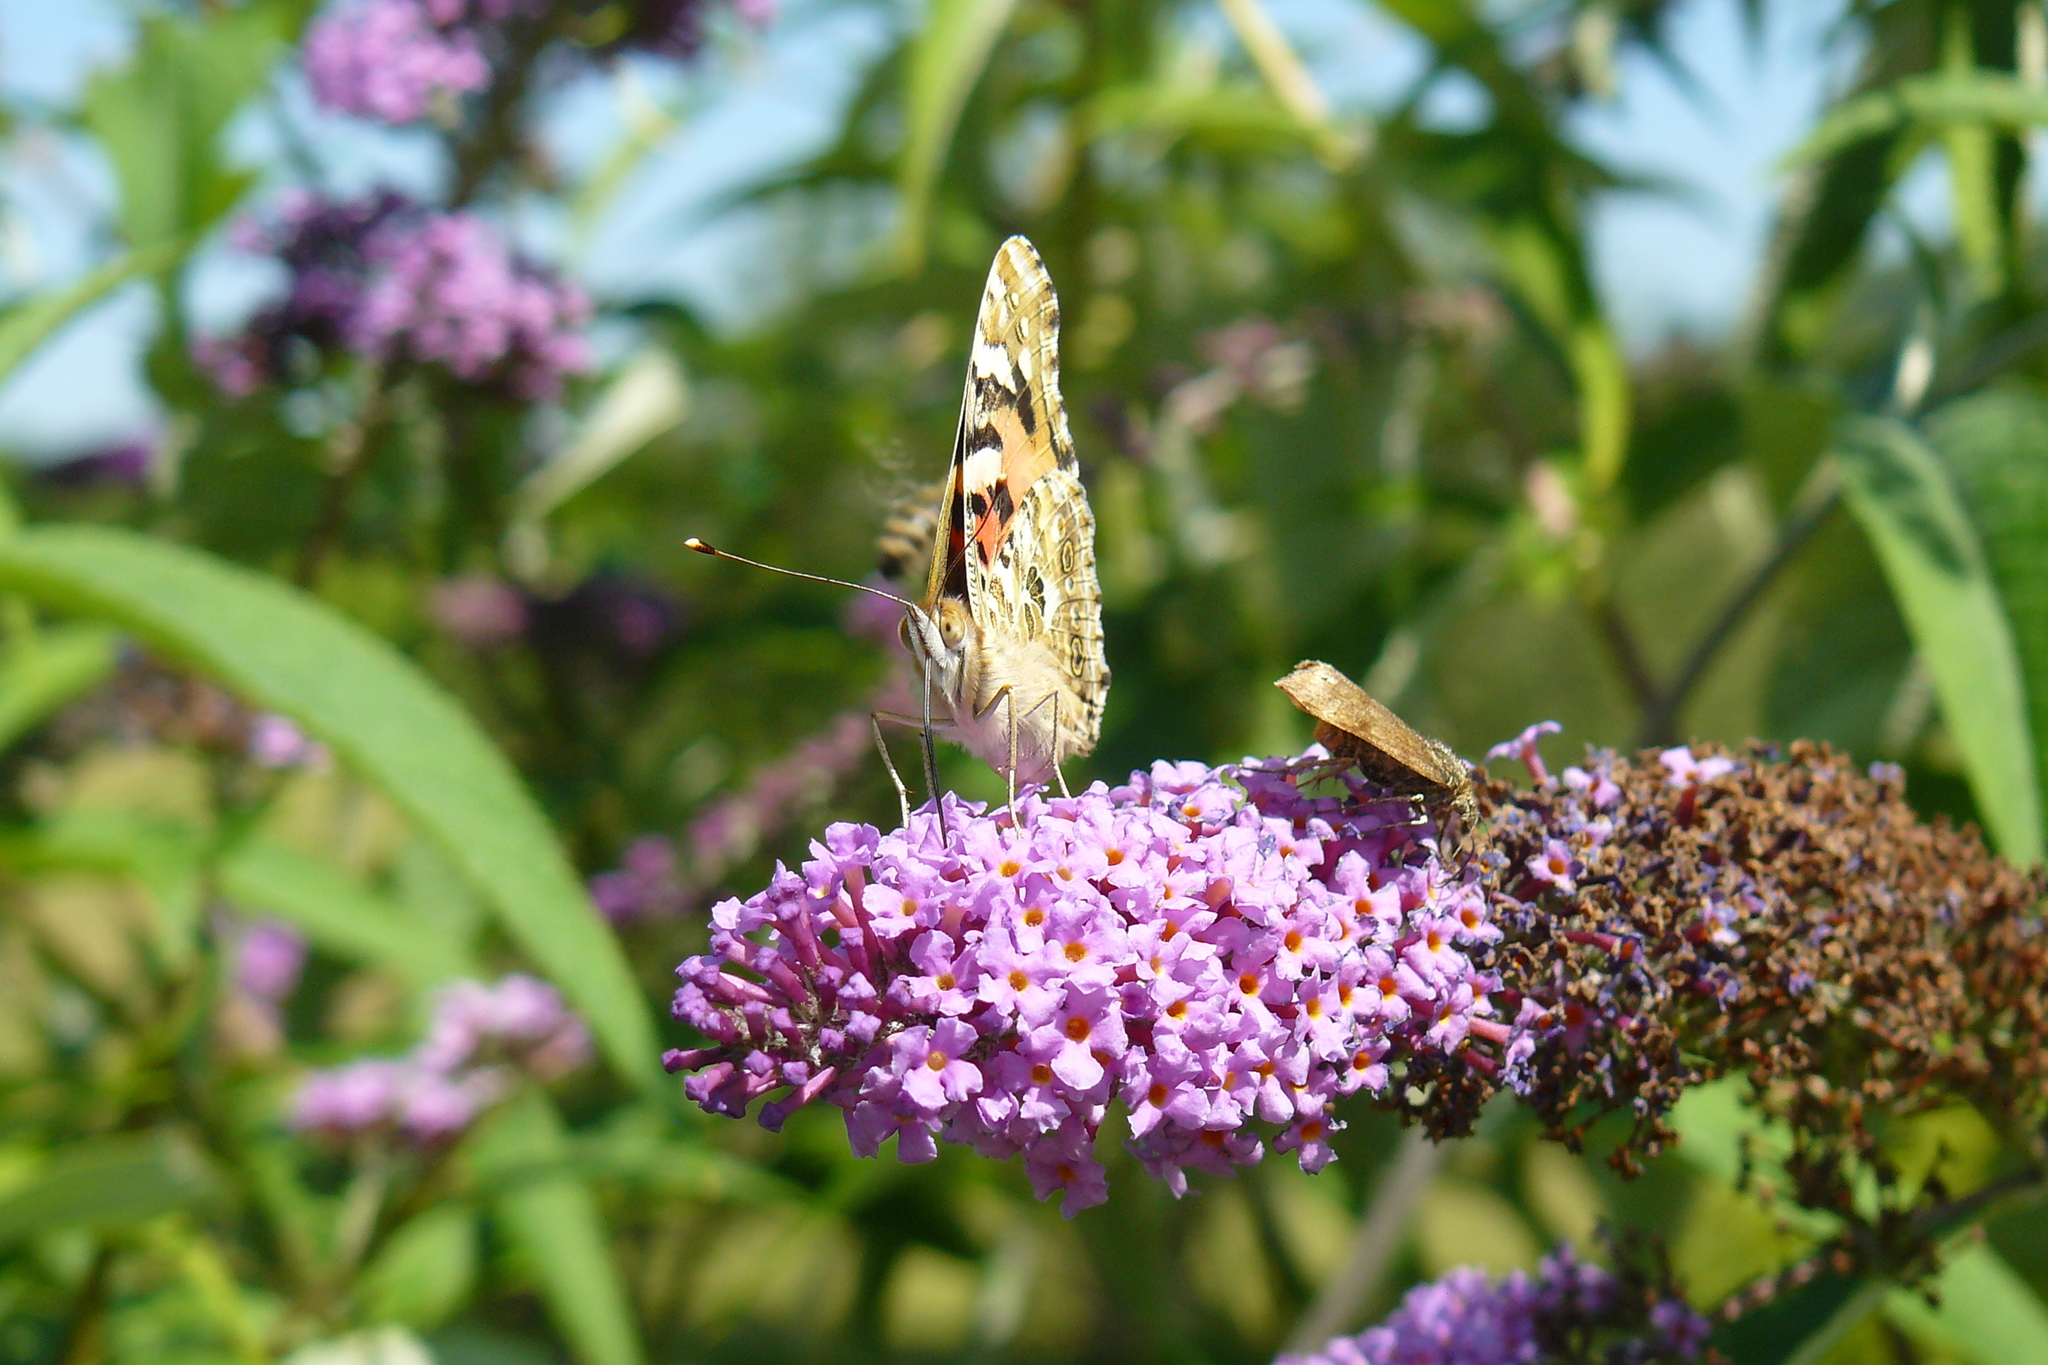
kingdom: Animalia
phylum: Arthropoda
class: Insecta
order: Lepidoptera
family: Nymphalidae
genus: Vanessa
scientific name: Vanessa cardui
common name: Painted lady
